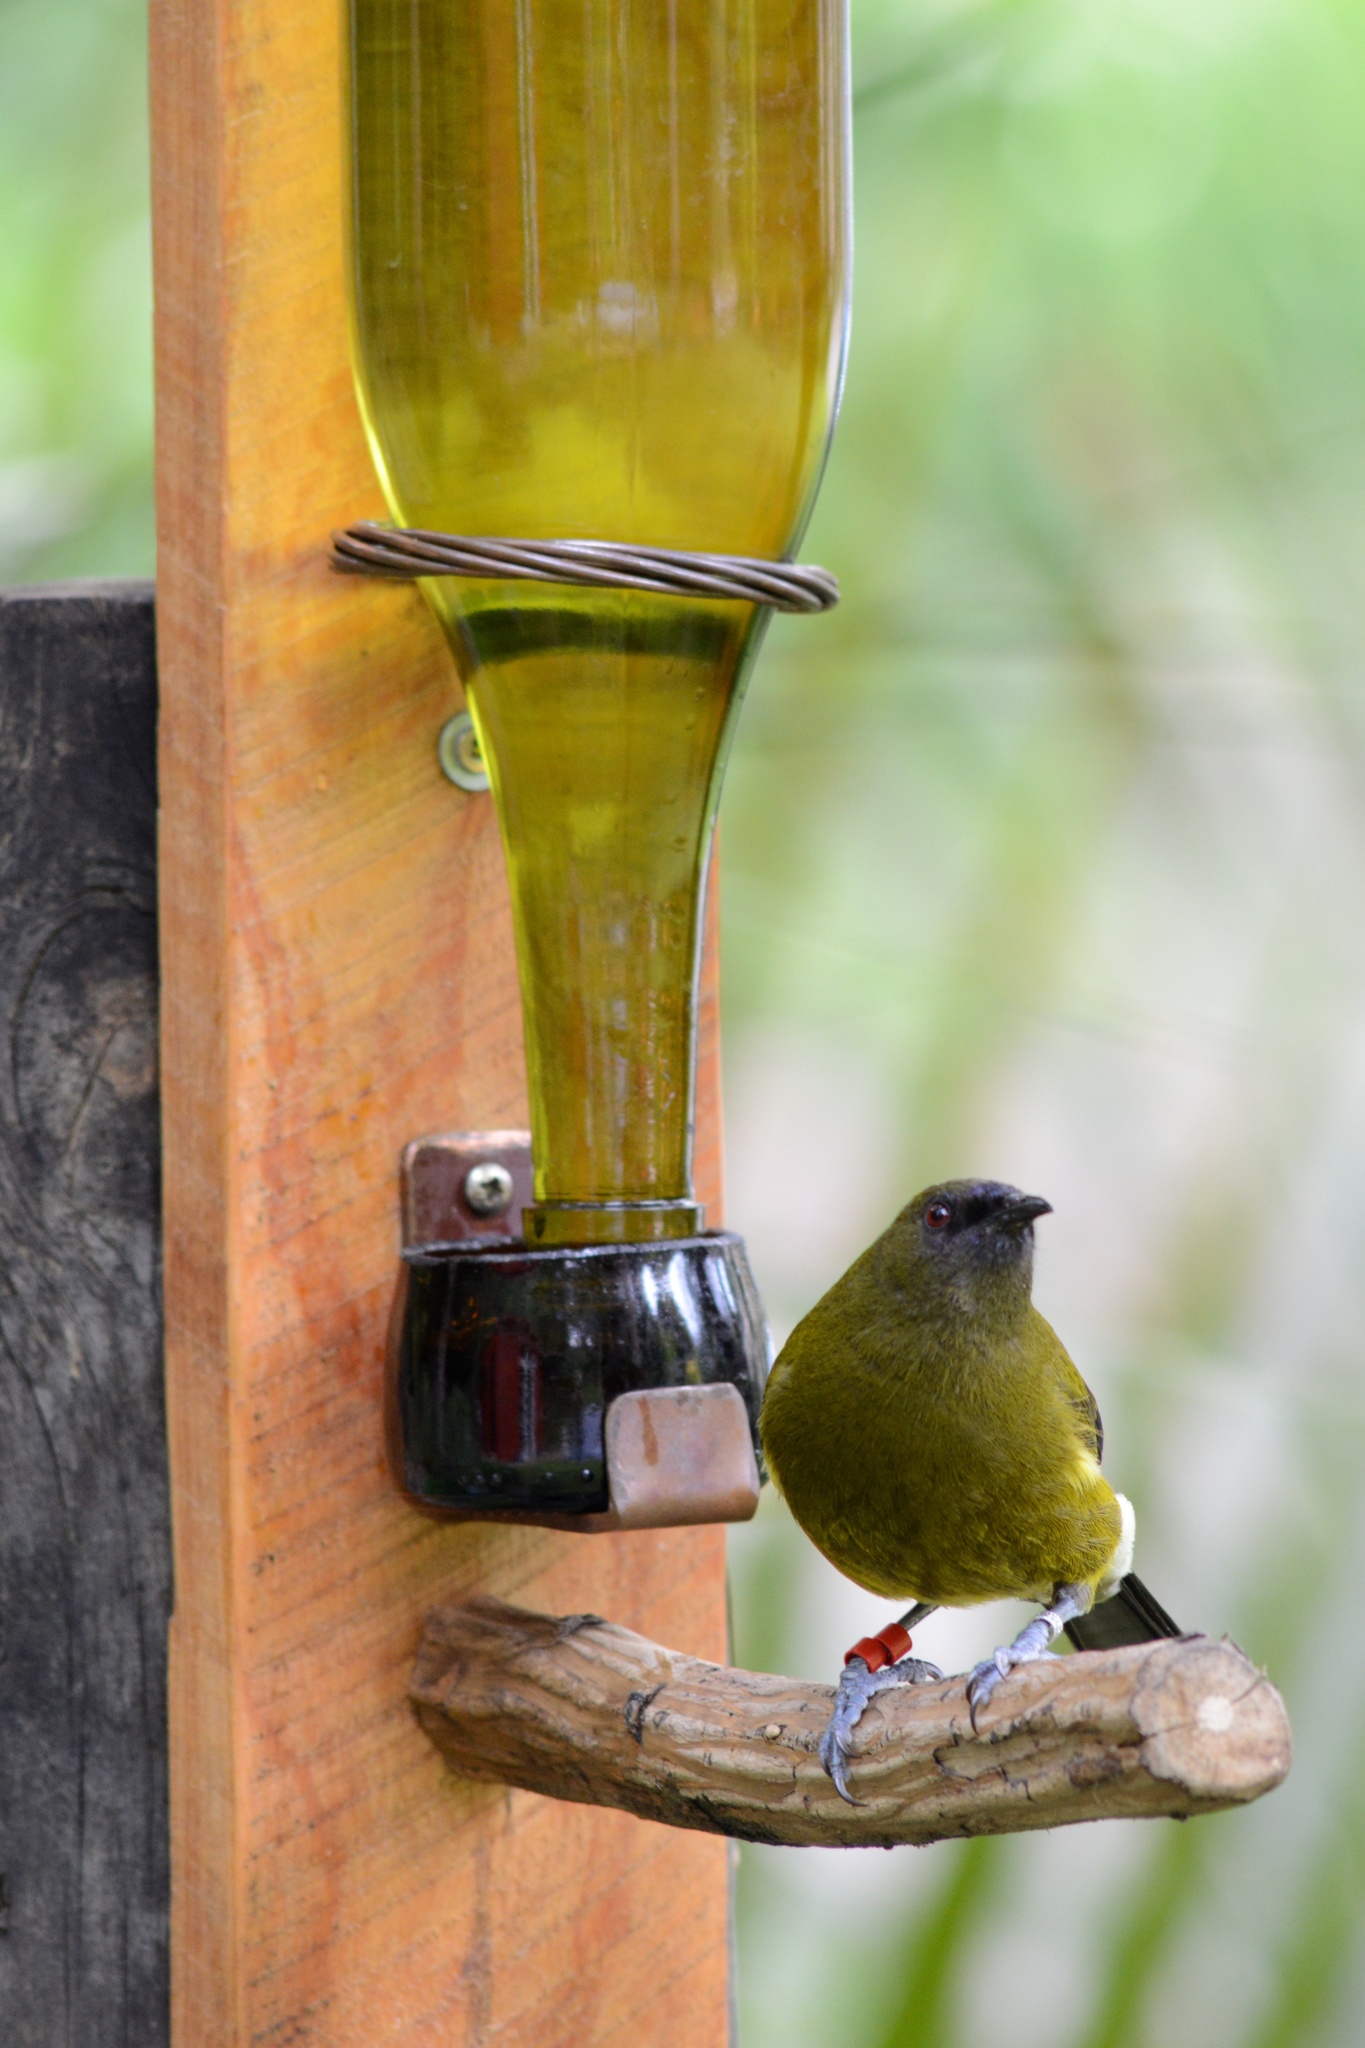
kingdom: Animalia
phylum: Chordata
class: Aves
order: Passeriformes
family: Meliphagidae
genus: Anthornis
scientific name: Anthornis melanura
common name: New zealand bellbird
